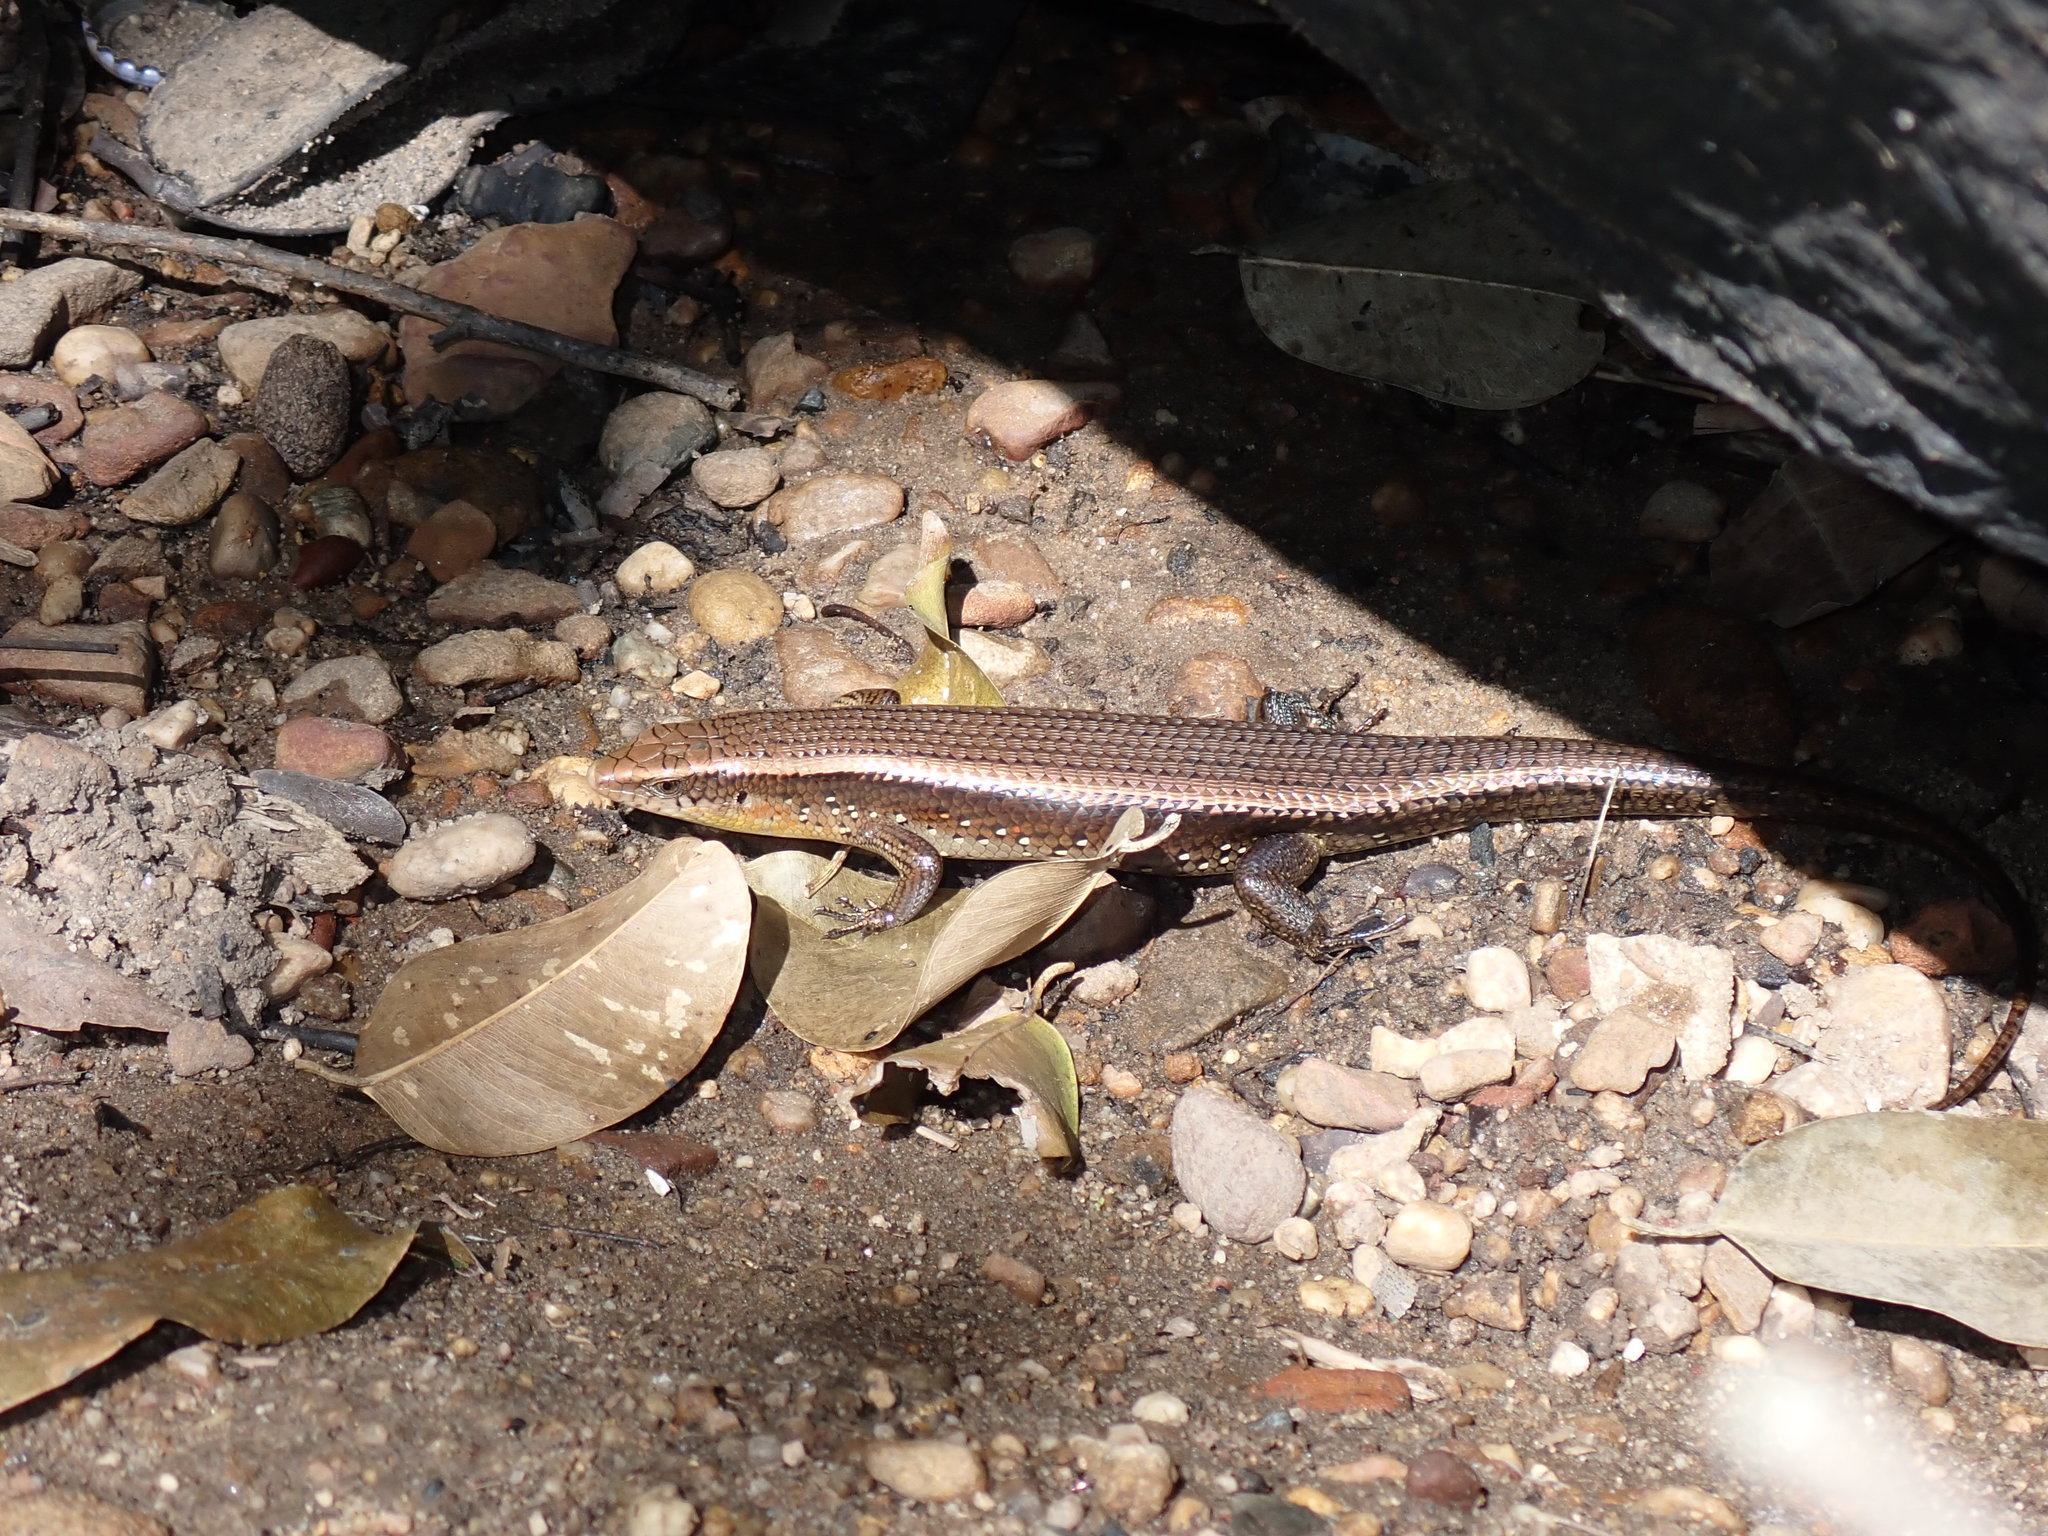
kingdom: Animalia
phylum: Chordata
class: Squamata
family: Scincidae
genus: Eutropis
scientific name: Eutropis multifasciata
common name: Common mabuya
